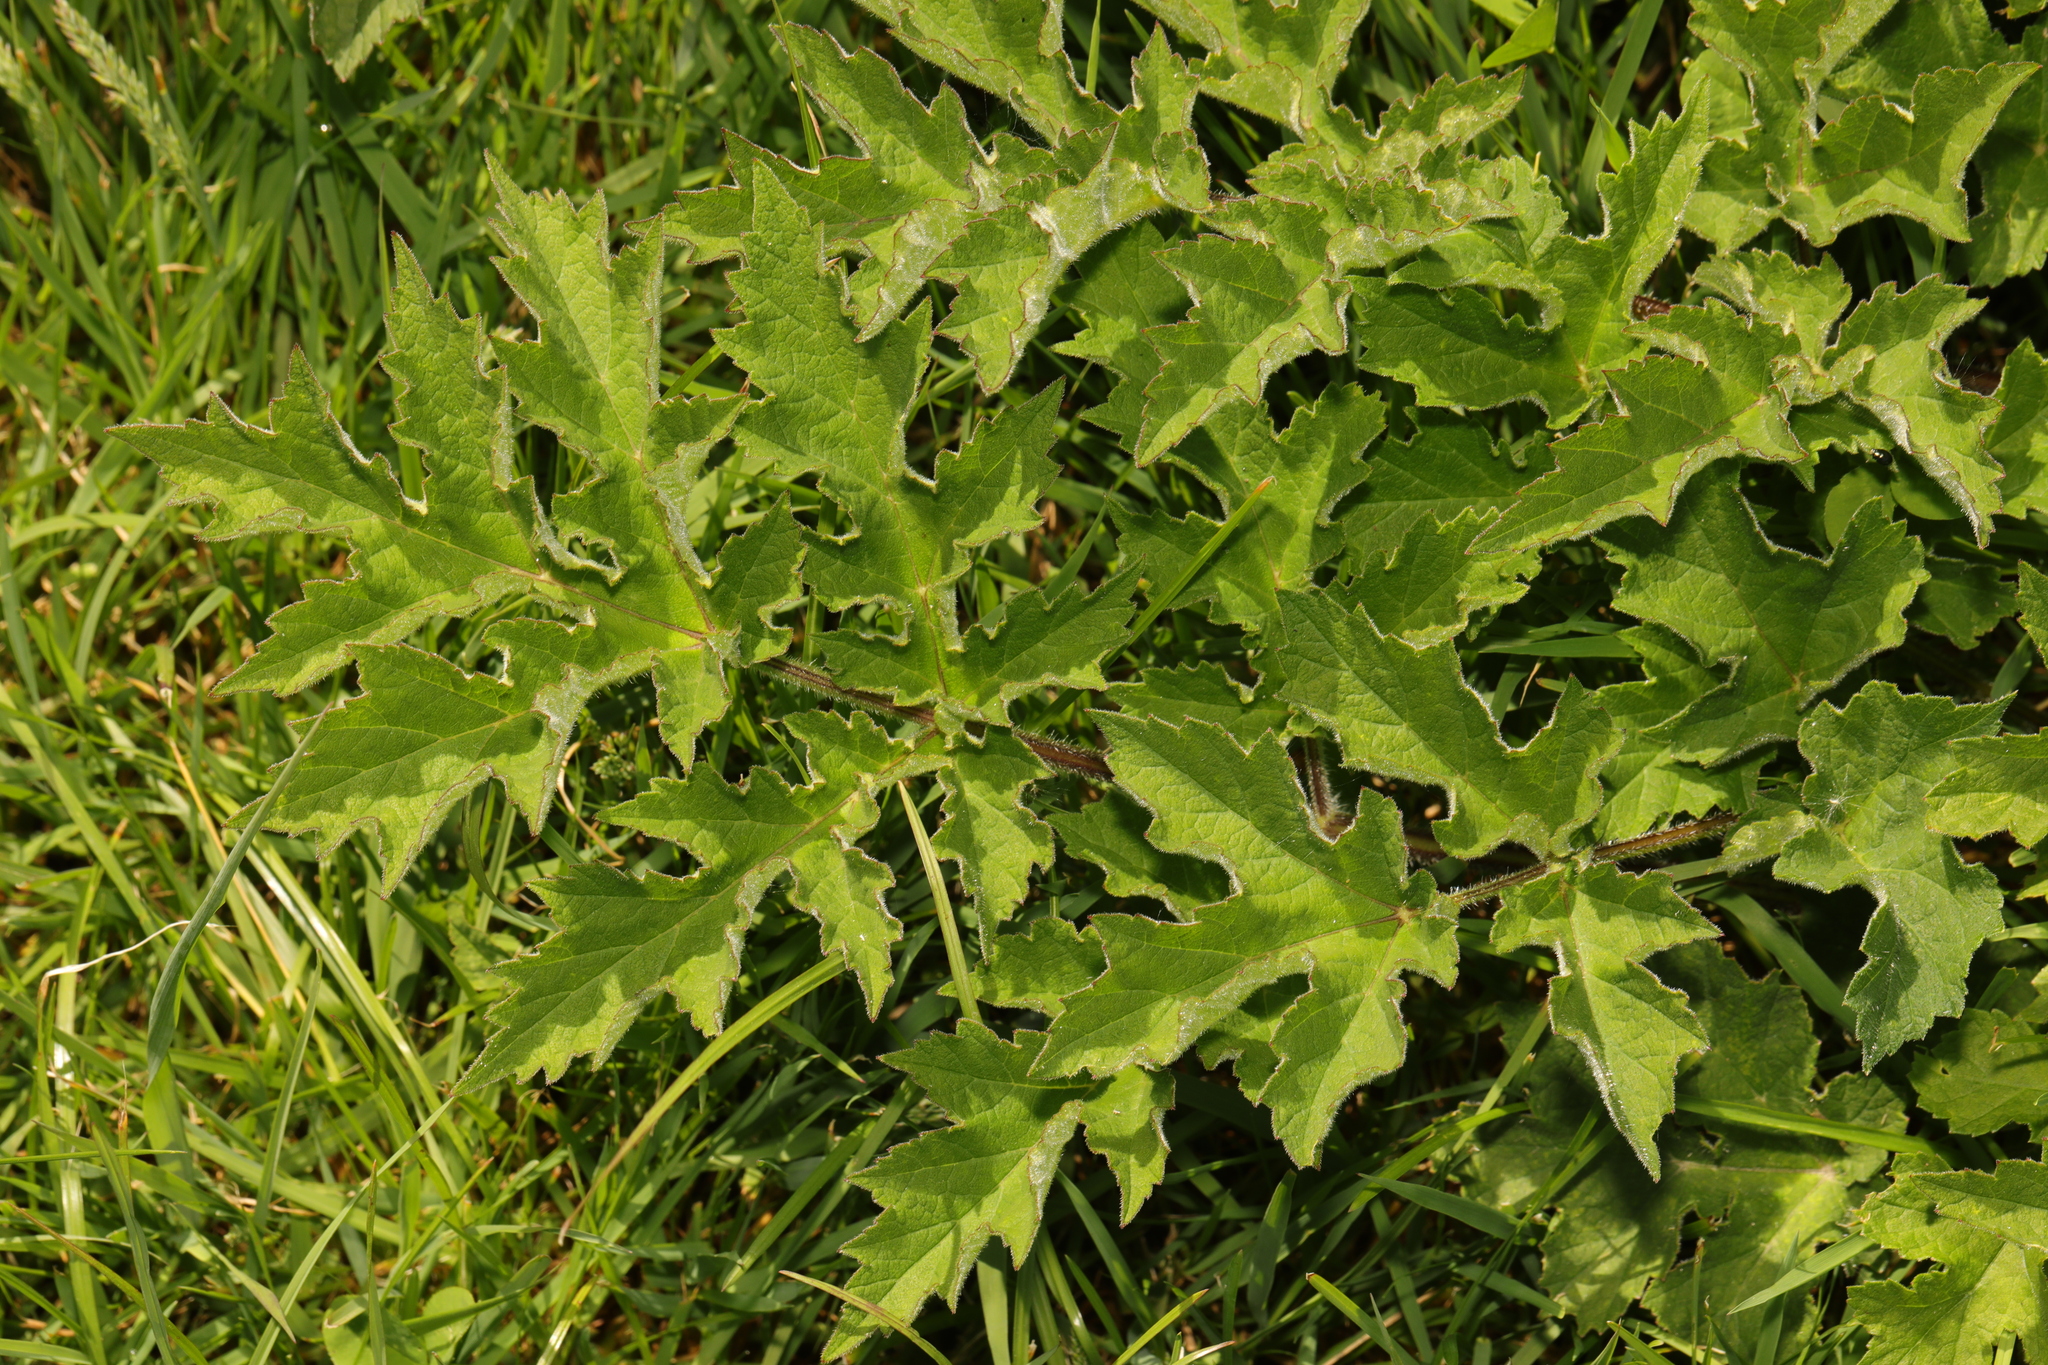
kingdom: Plantae
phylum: Tracheophyta
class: Magnoliopsida
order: Apiales
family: Apiaceae
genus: Heracleum
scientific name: Heracleum sphondylium
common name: Hogweed
